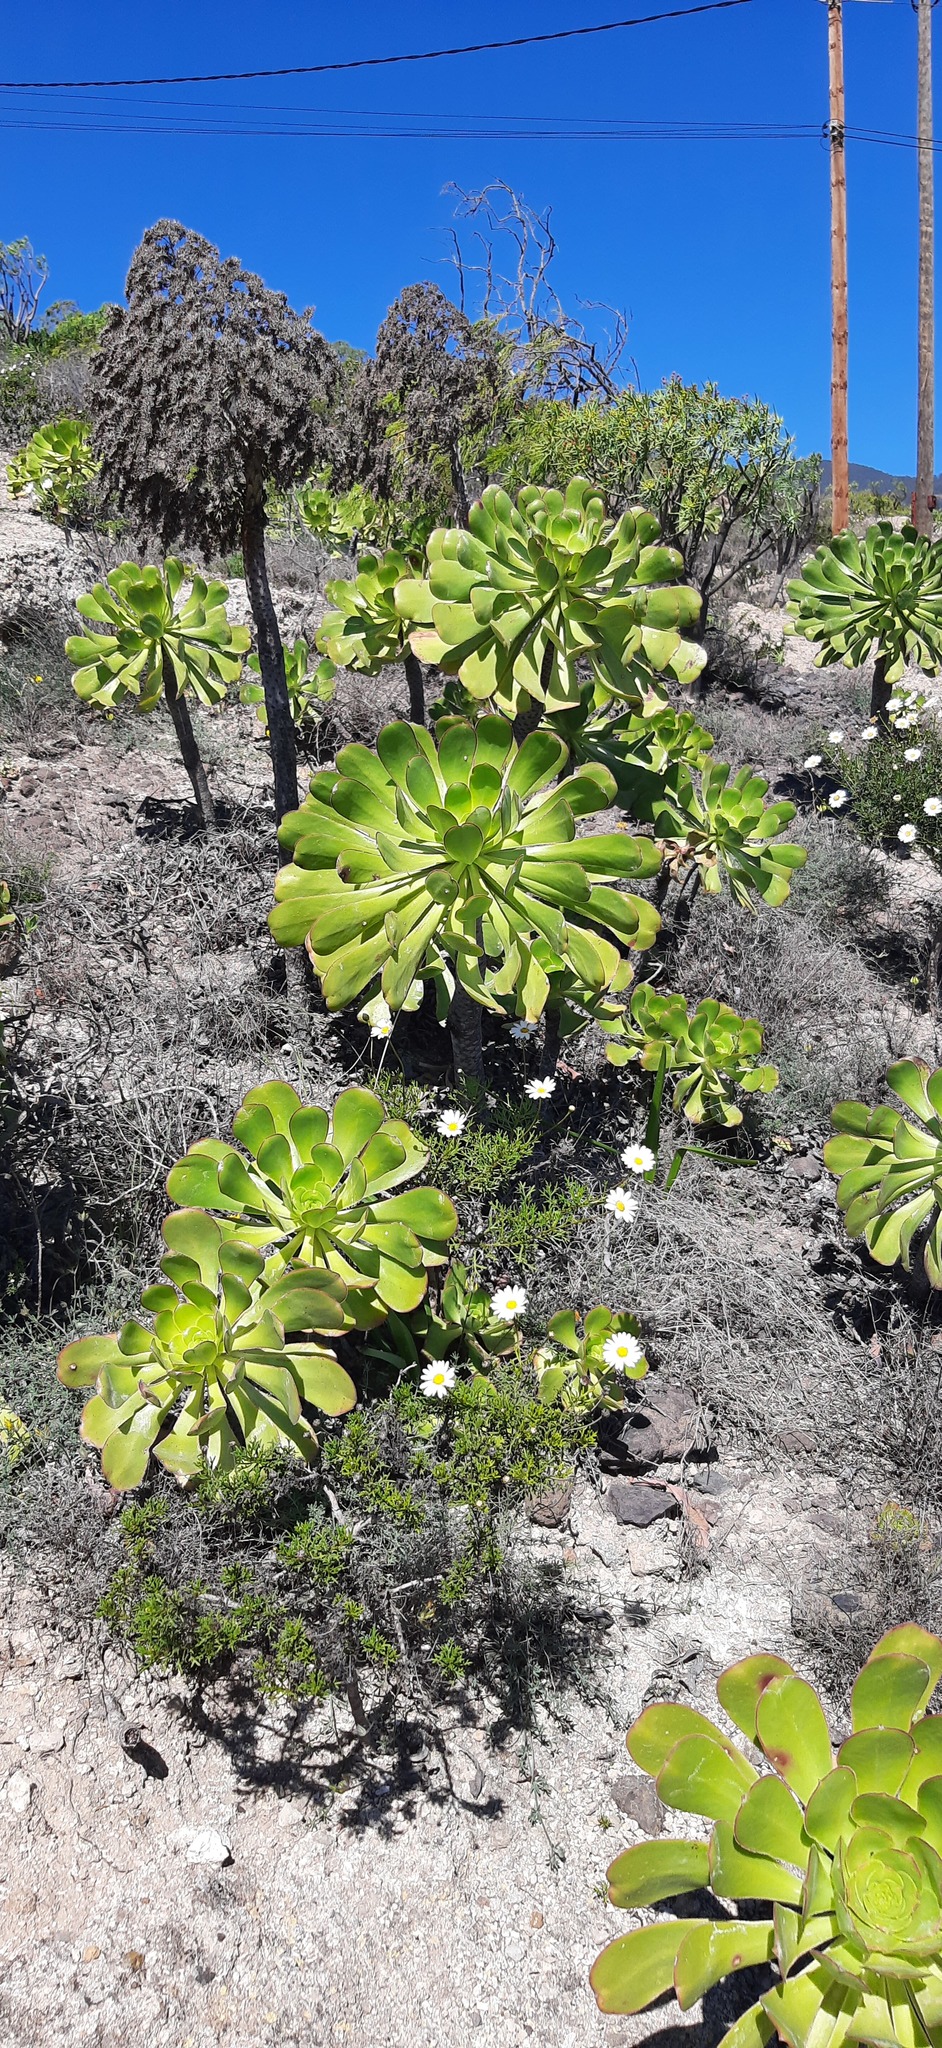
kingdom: Plantae
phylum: Tracheophyta
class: Magnoliopsida
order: Saxifragales
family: Crassulaceae
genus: Aeonium
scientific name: Aeonium urbicum
